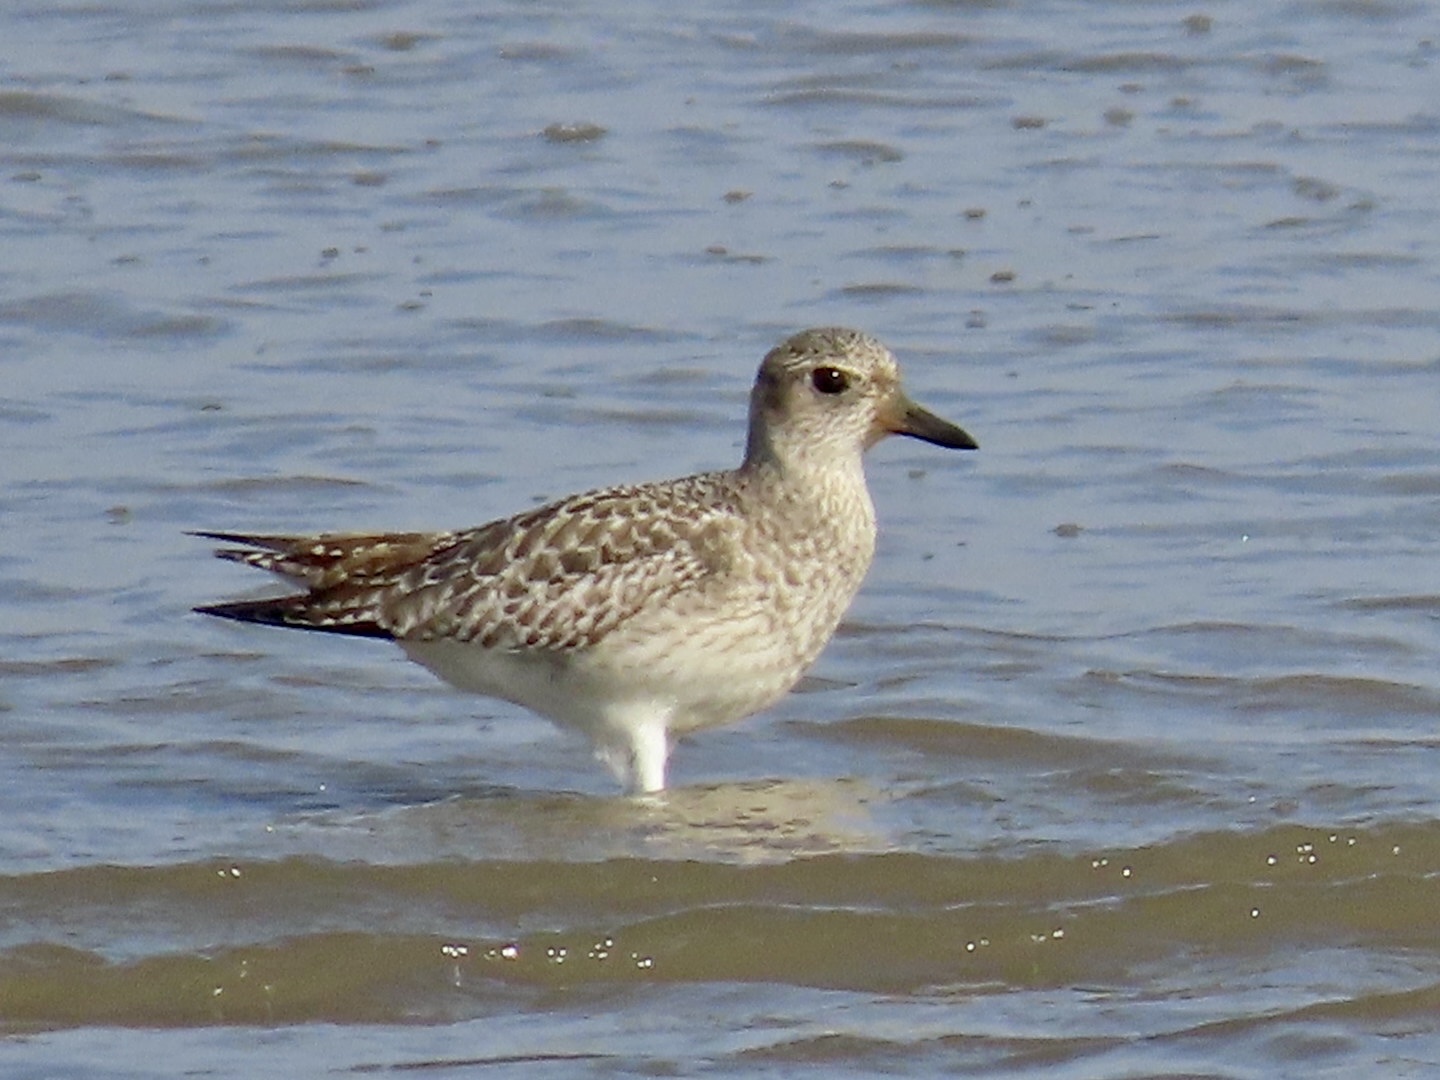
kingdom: Animalia
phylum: Chordata
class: Aves
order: Charadriiformes
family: Charadriidae
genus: Pluvialis
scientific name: Pluvialis squatarola
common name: Grey plover
